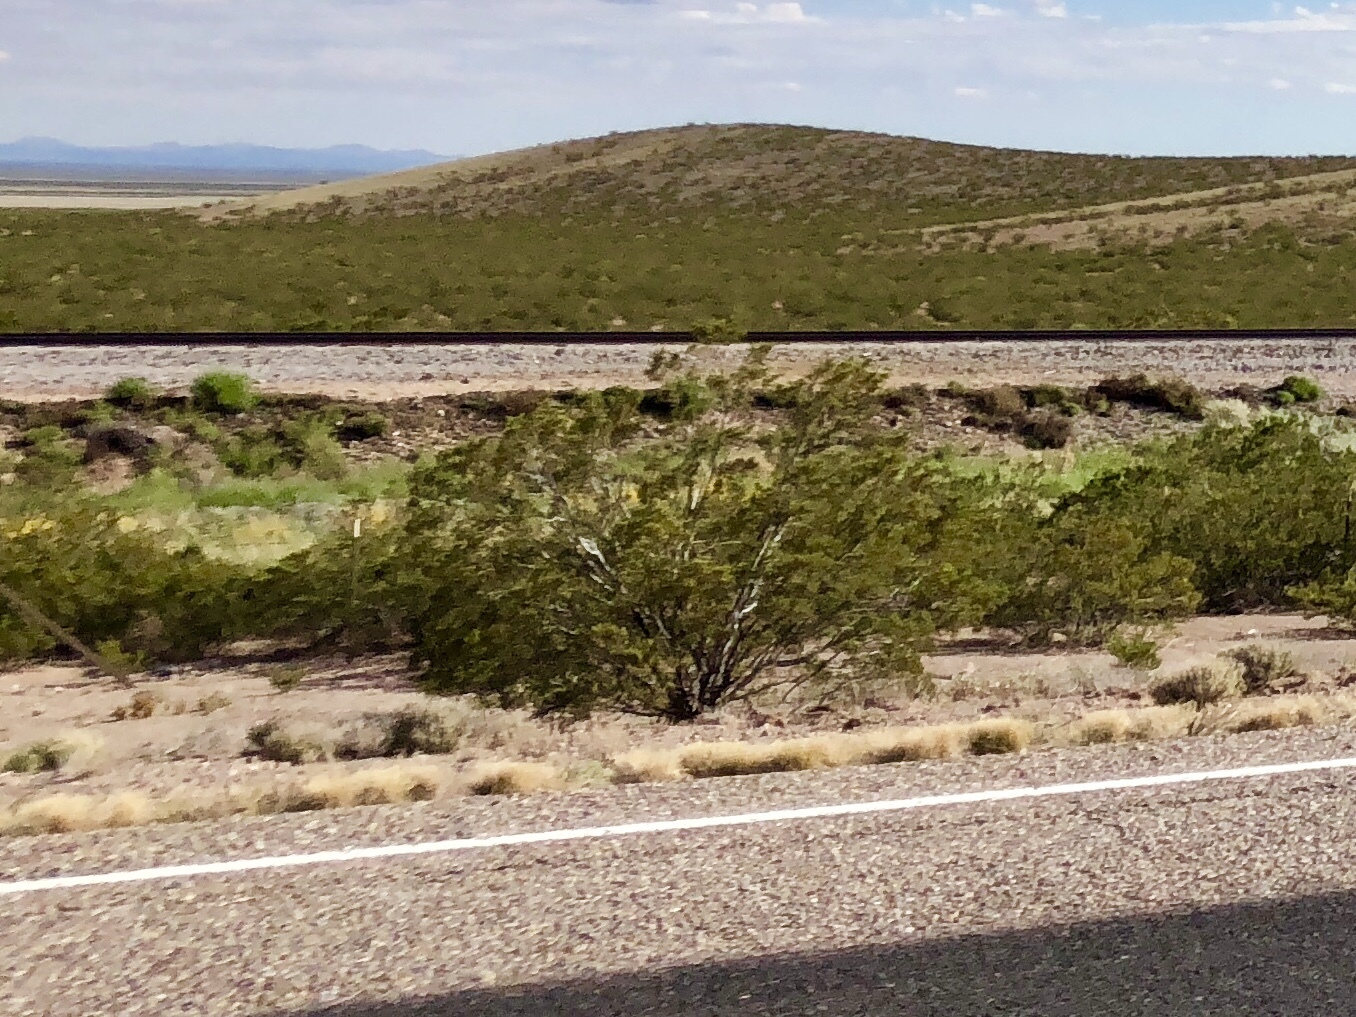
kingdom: Plantae
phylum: Tracheophyta
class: Magnoliopsida
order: Zygophyllales
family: Zygophyllaceae
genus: Larrea
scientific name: Larrea tridentata
